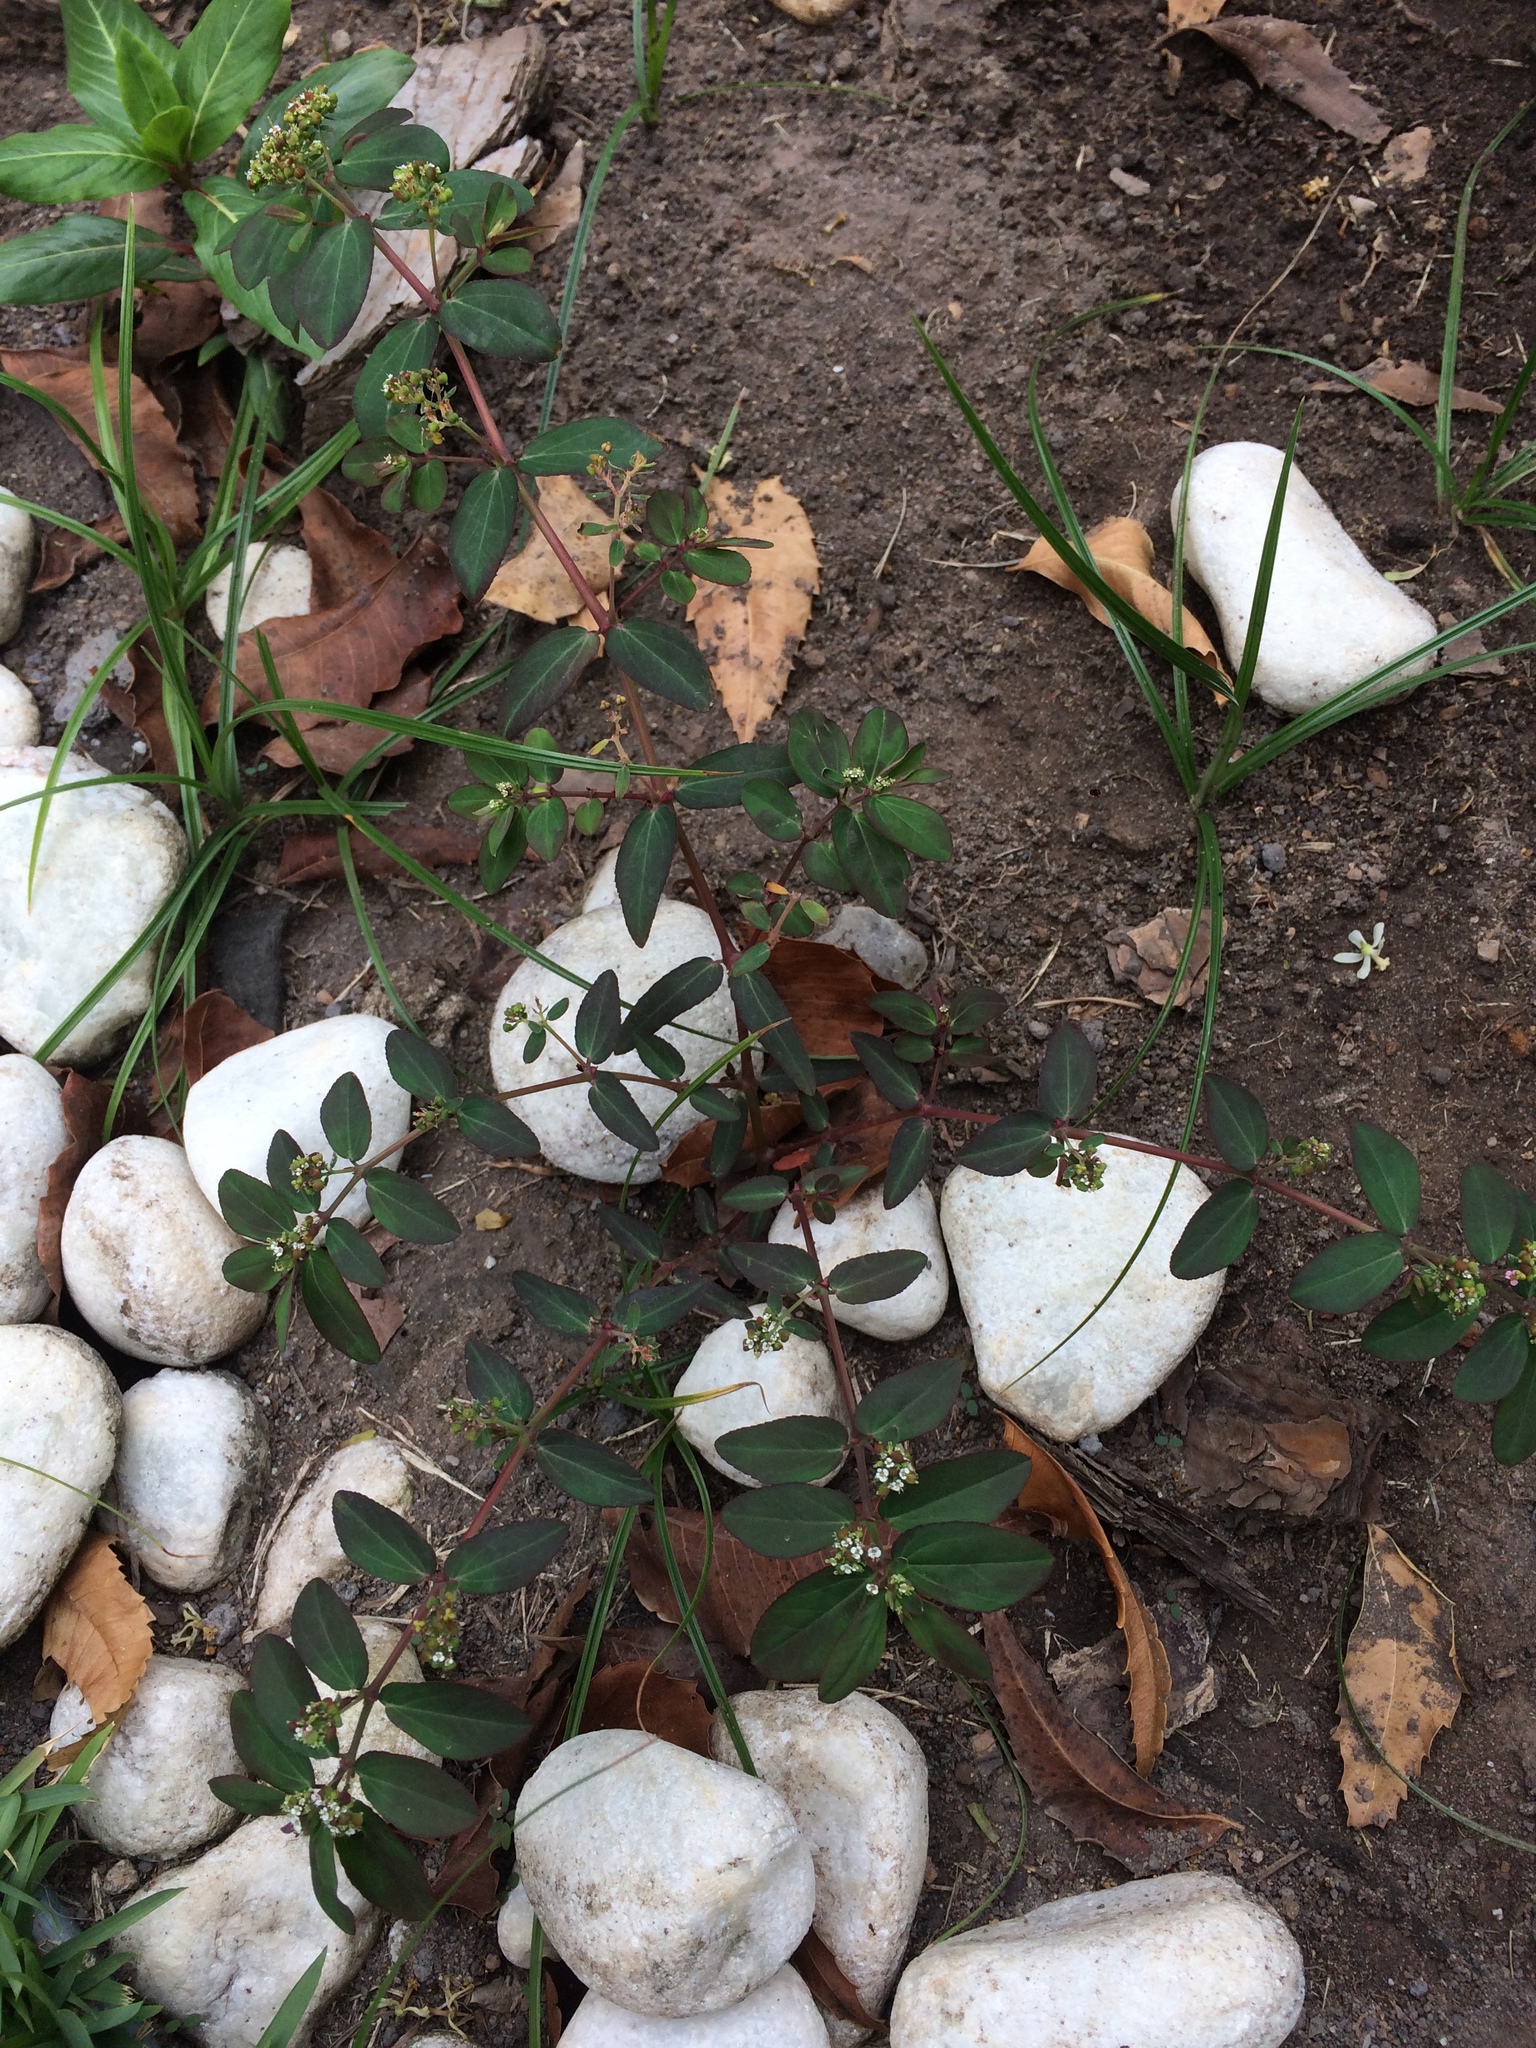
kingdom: Plantae
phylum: Tracheophyta
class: Magnoliopsida
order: Malpighiales
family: Euphorbiaceae
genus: Euphorbia
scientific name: Euphorbia hypericifolia
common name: Graceful sandmat
